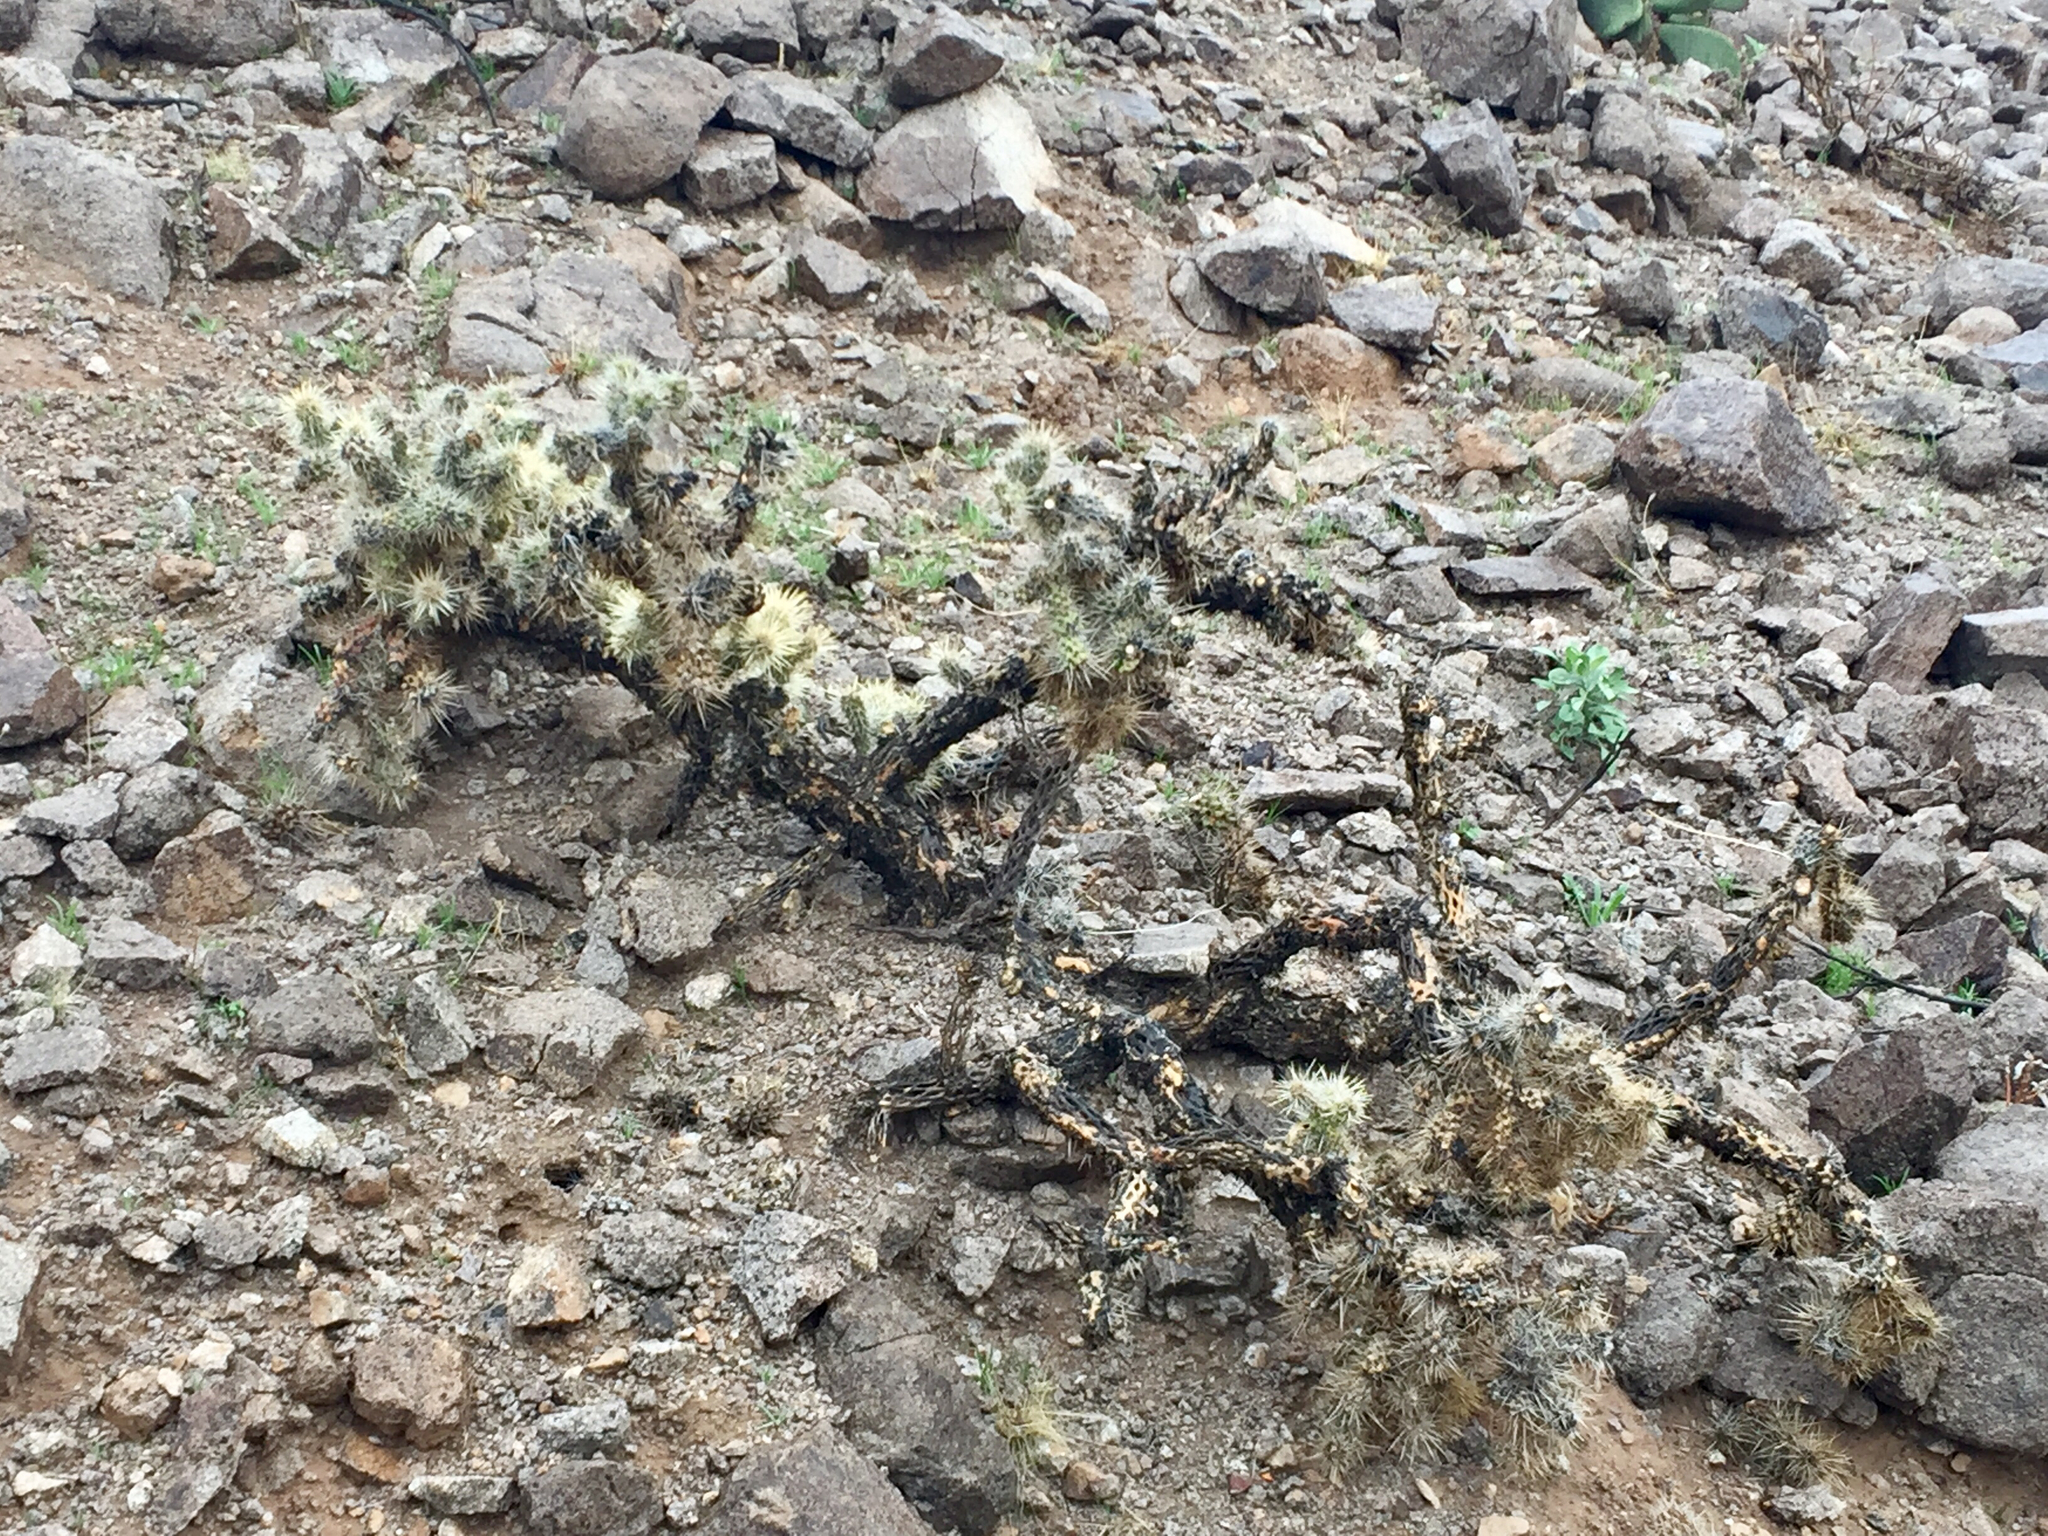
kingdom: Plantae
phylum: Tracheophyta
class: Magnoliopsida
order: Caryophyllales
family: Cactaceae
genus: Cylindropuntia
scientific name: Cylindropuntia echinocarpa
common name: Ground cholla
